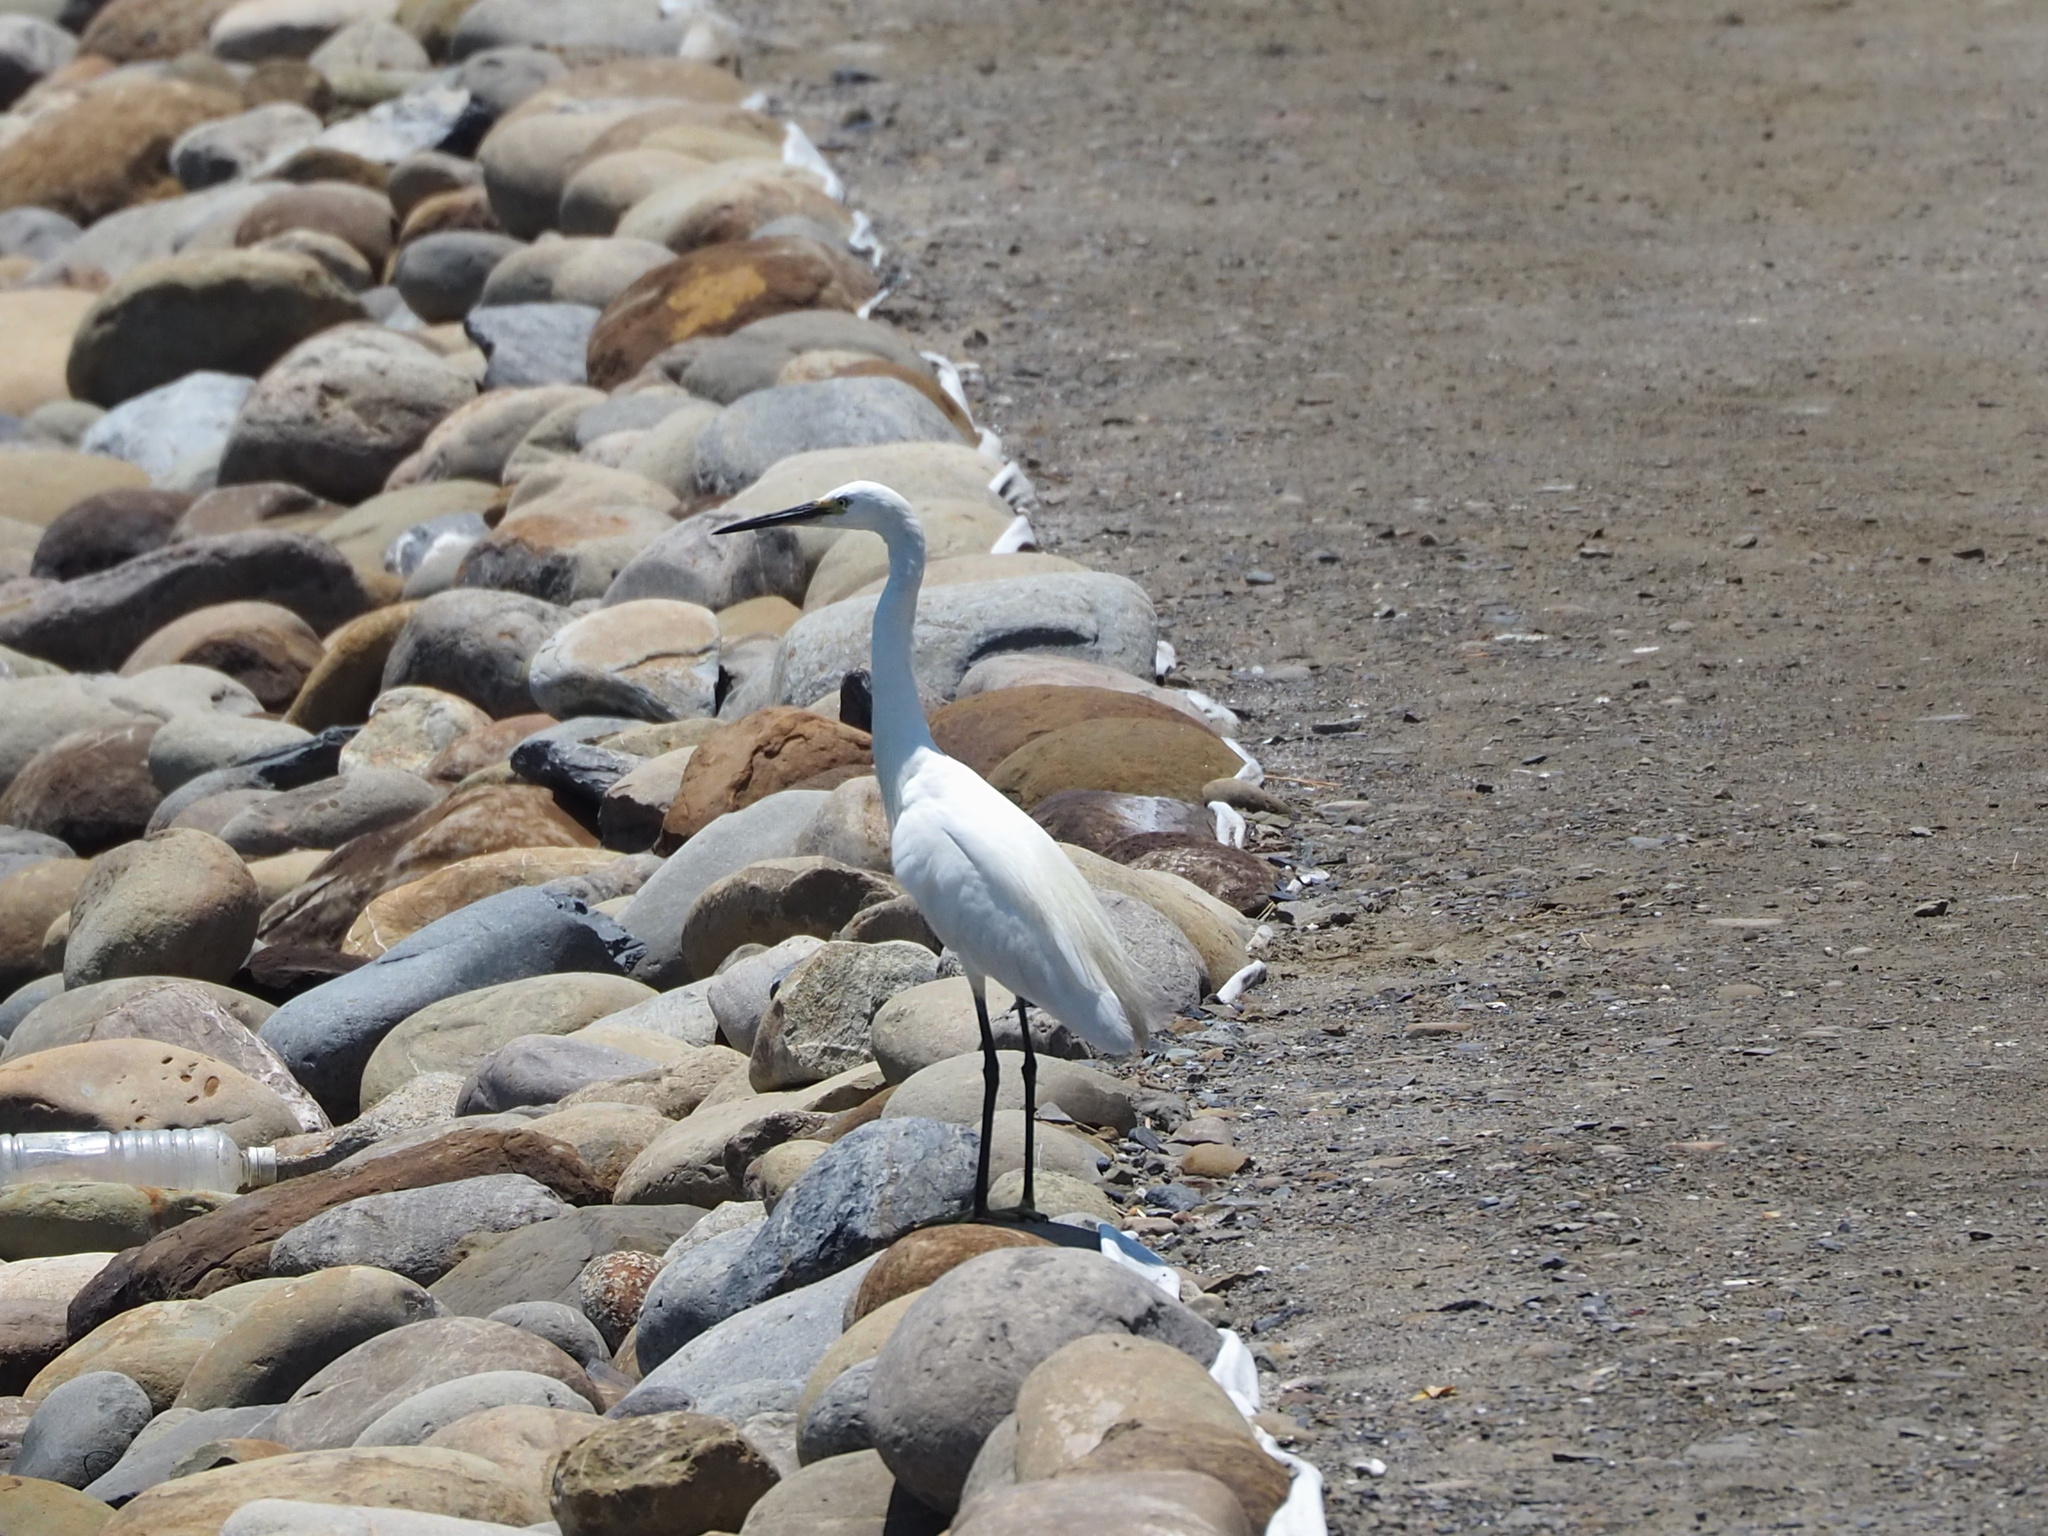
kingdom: Animalia
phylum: Chordata
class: Aves
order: Pelecaniformes
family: Ardeidae
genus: Egretta
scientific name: Egretta garzetta
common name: Little egret
